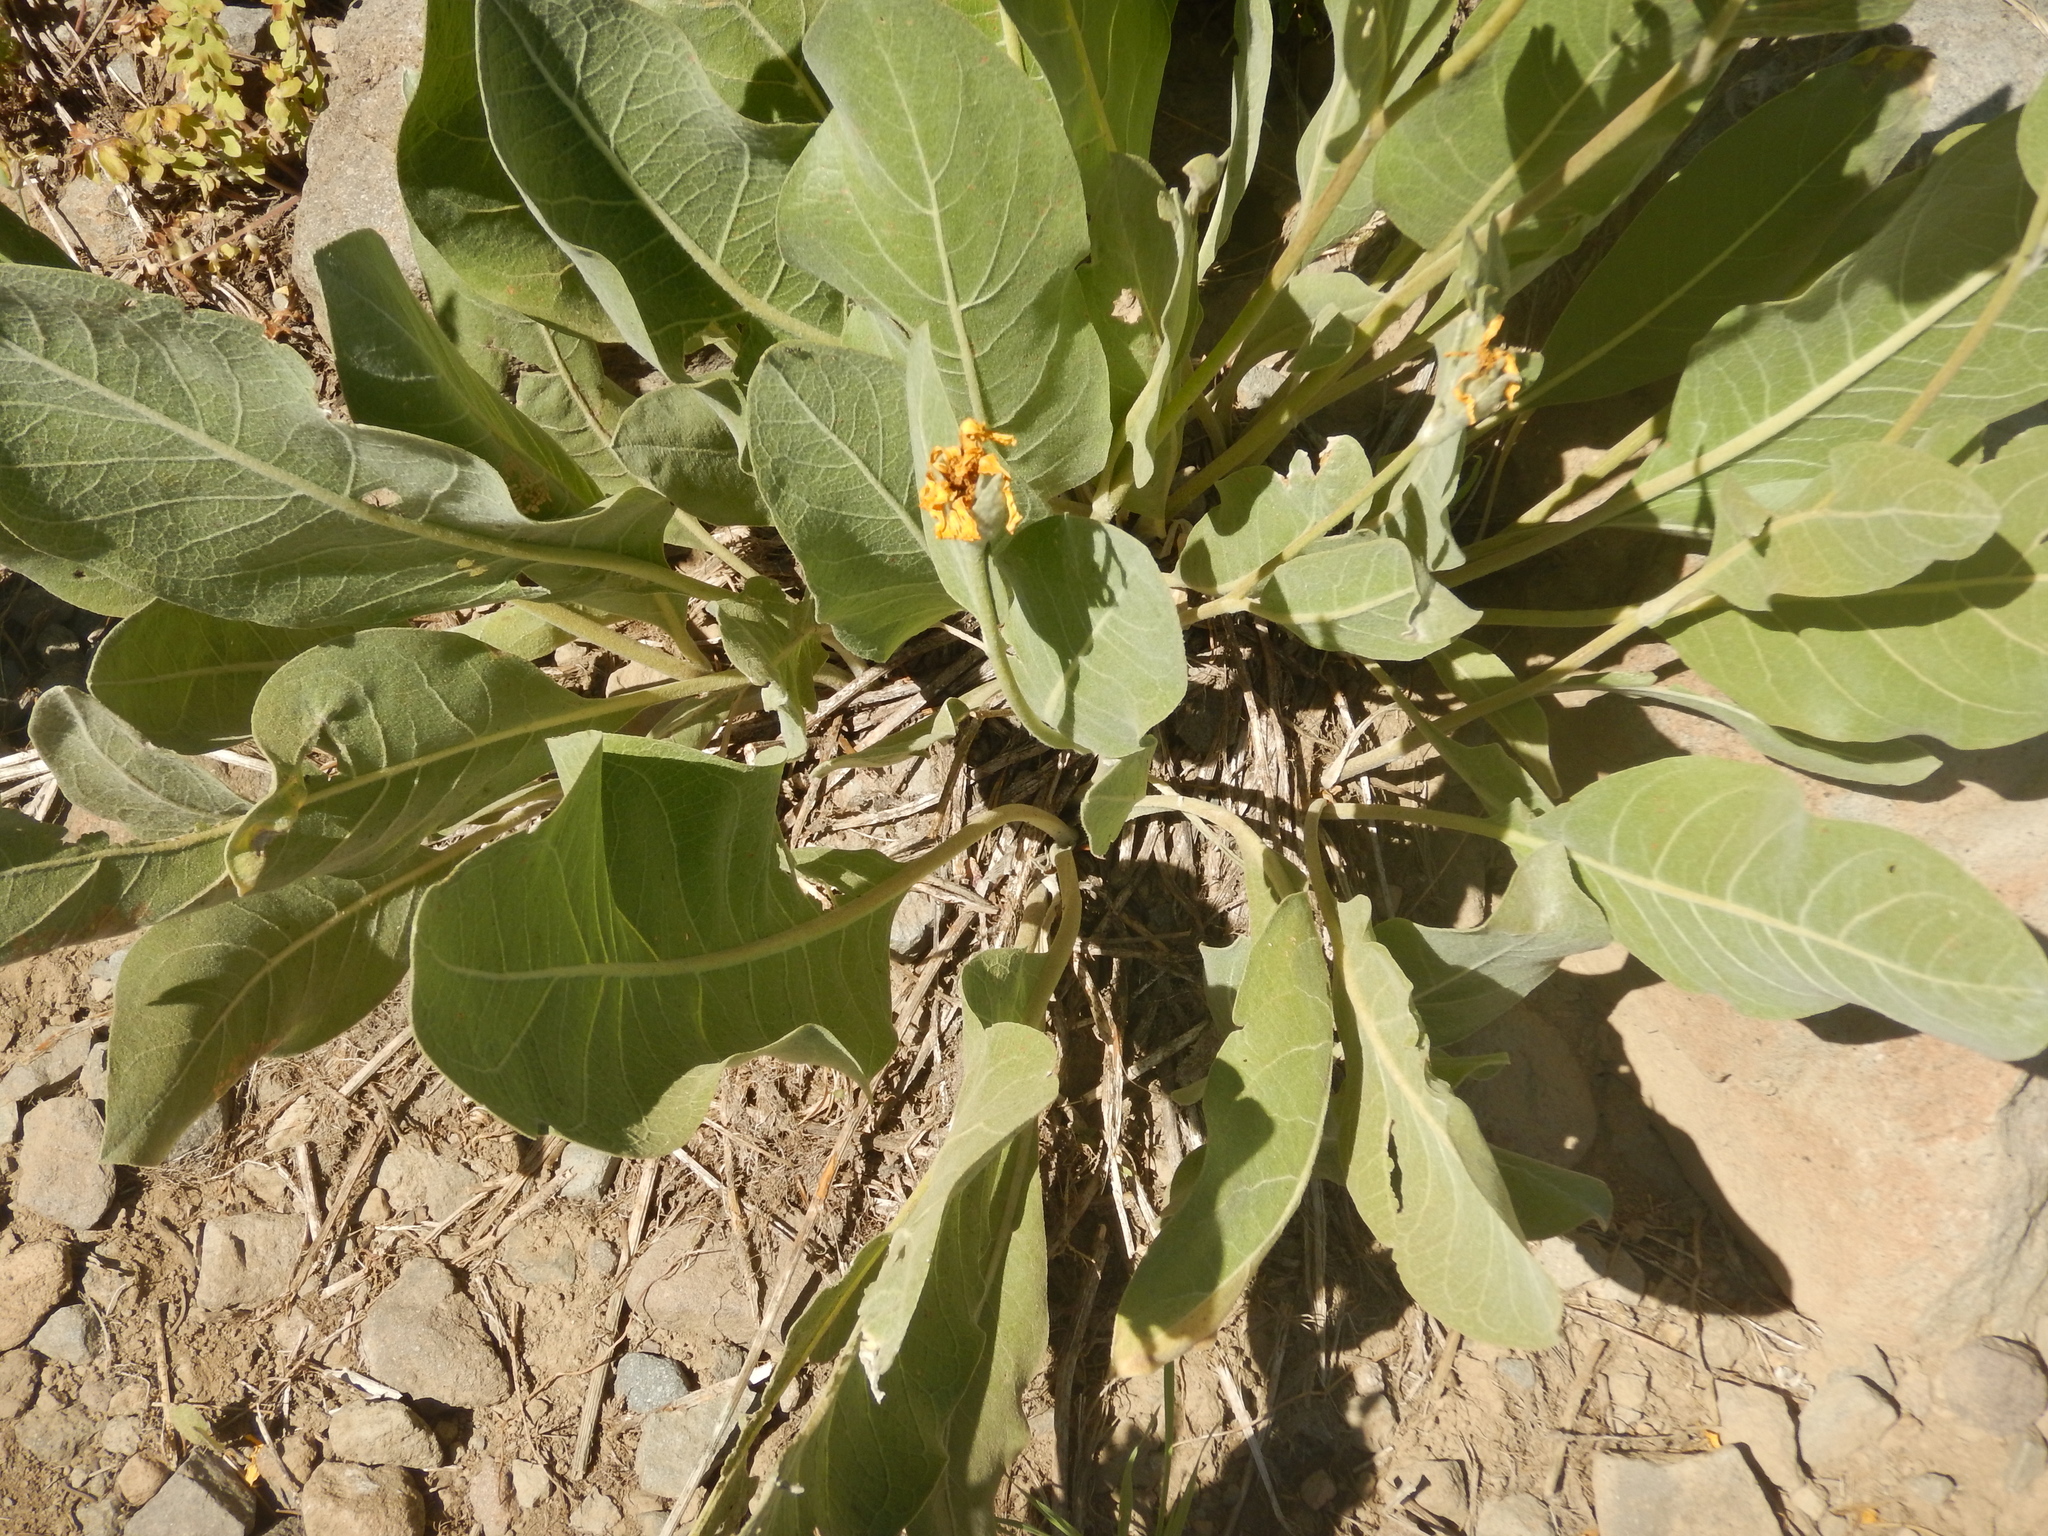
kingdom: Plantae
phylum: Tracheophyta
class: Magnoliopsida
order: Asterales
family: Asteraceae
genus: Wyethia
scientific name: Wyethia mollis
